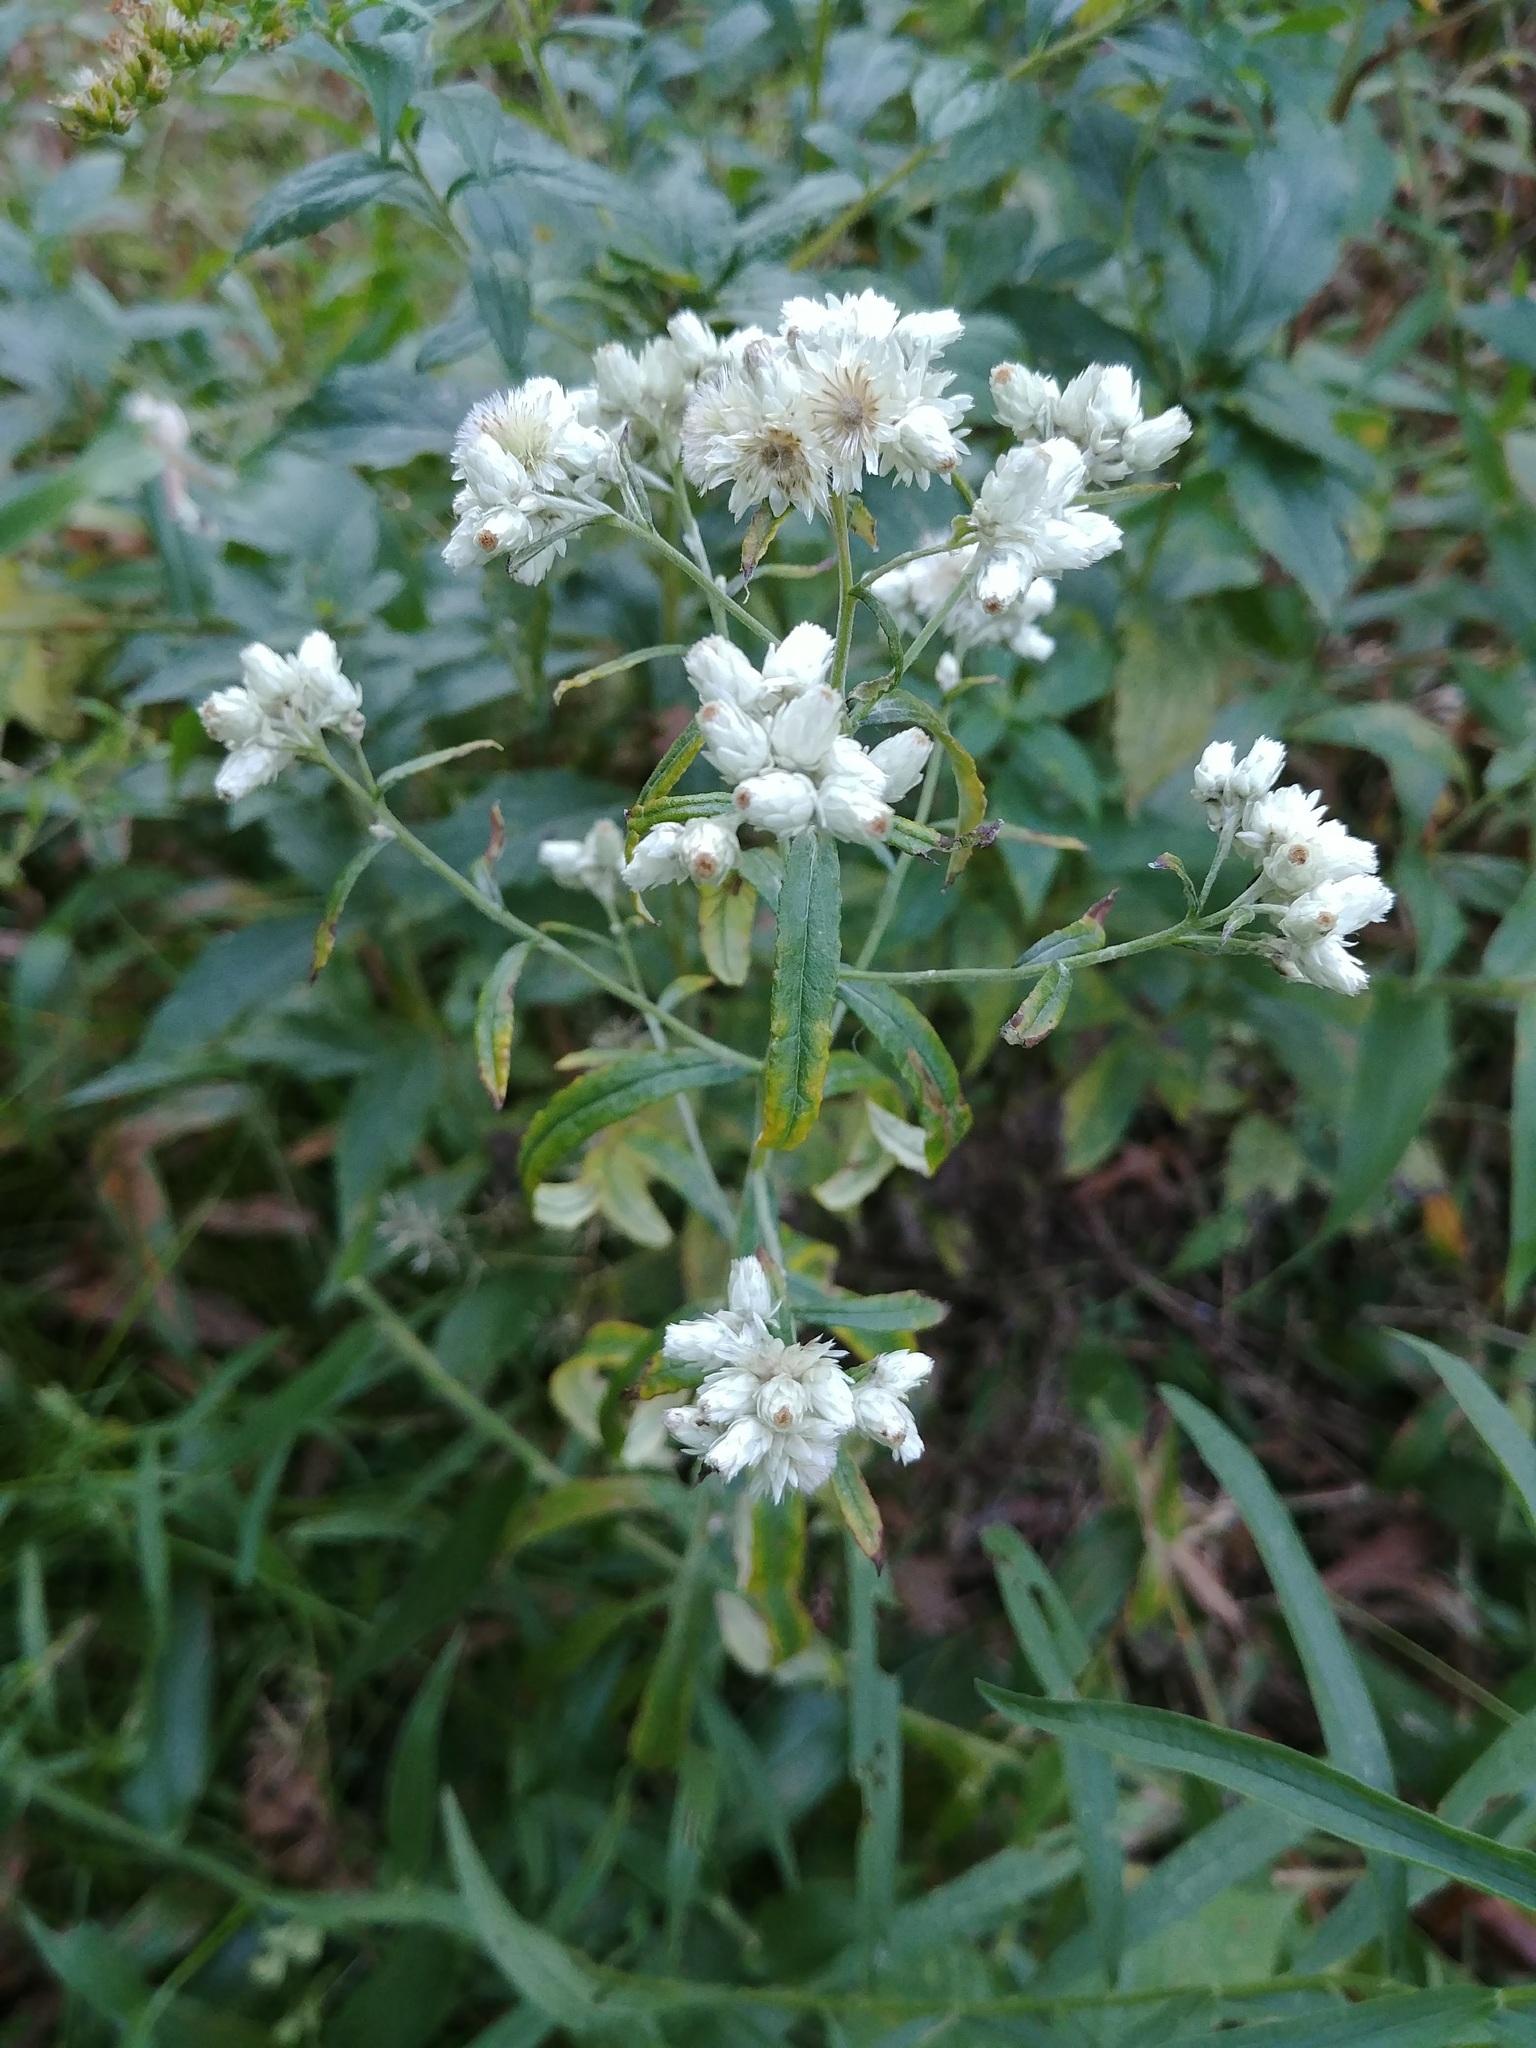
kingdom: Plantae
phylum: Tracheophyta
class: Magnoliopsida
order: Asterales
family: Asteraceae
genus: Pseudognaphalium
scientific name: Pseudognaphalium obtusifolium
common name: Eastern rabbit-tobacco
